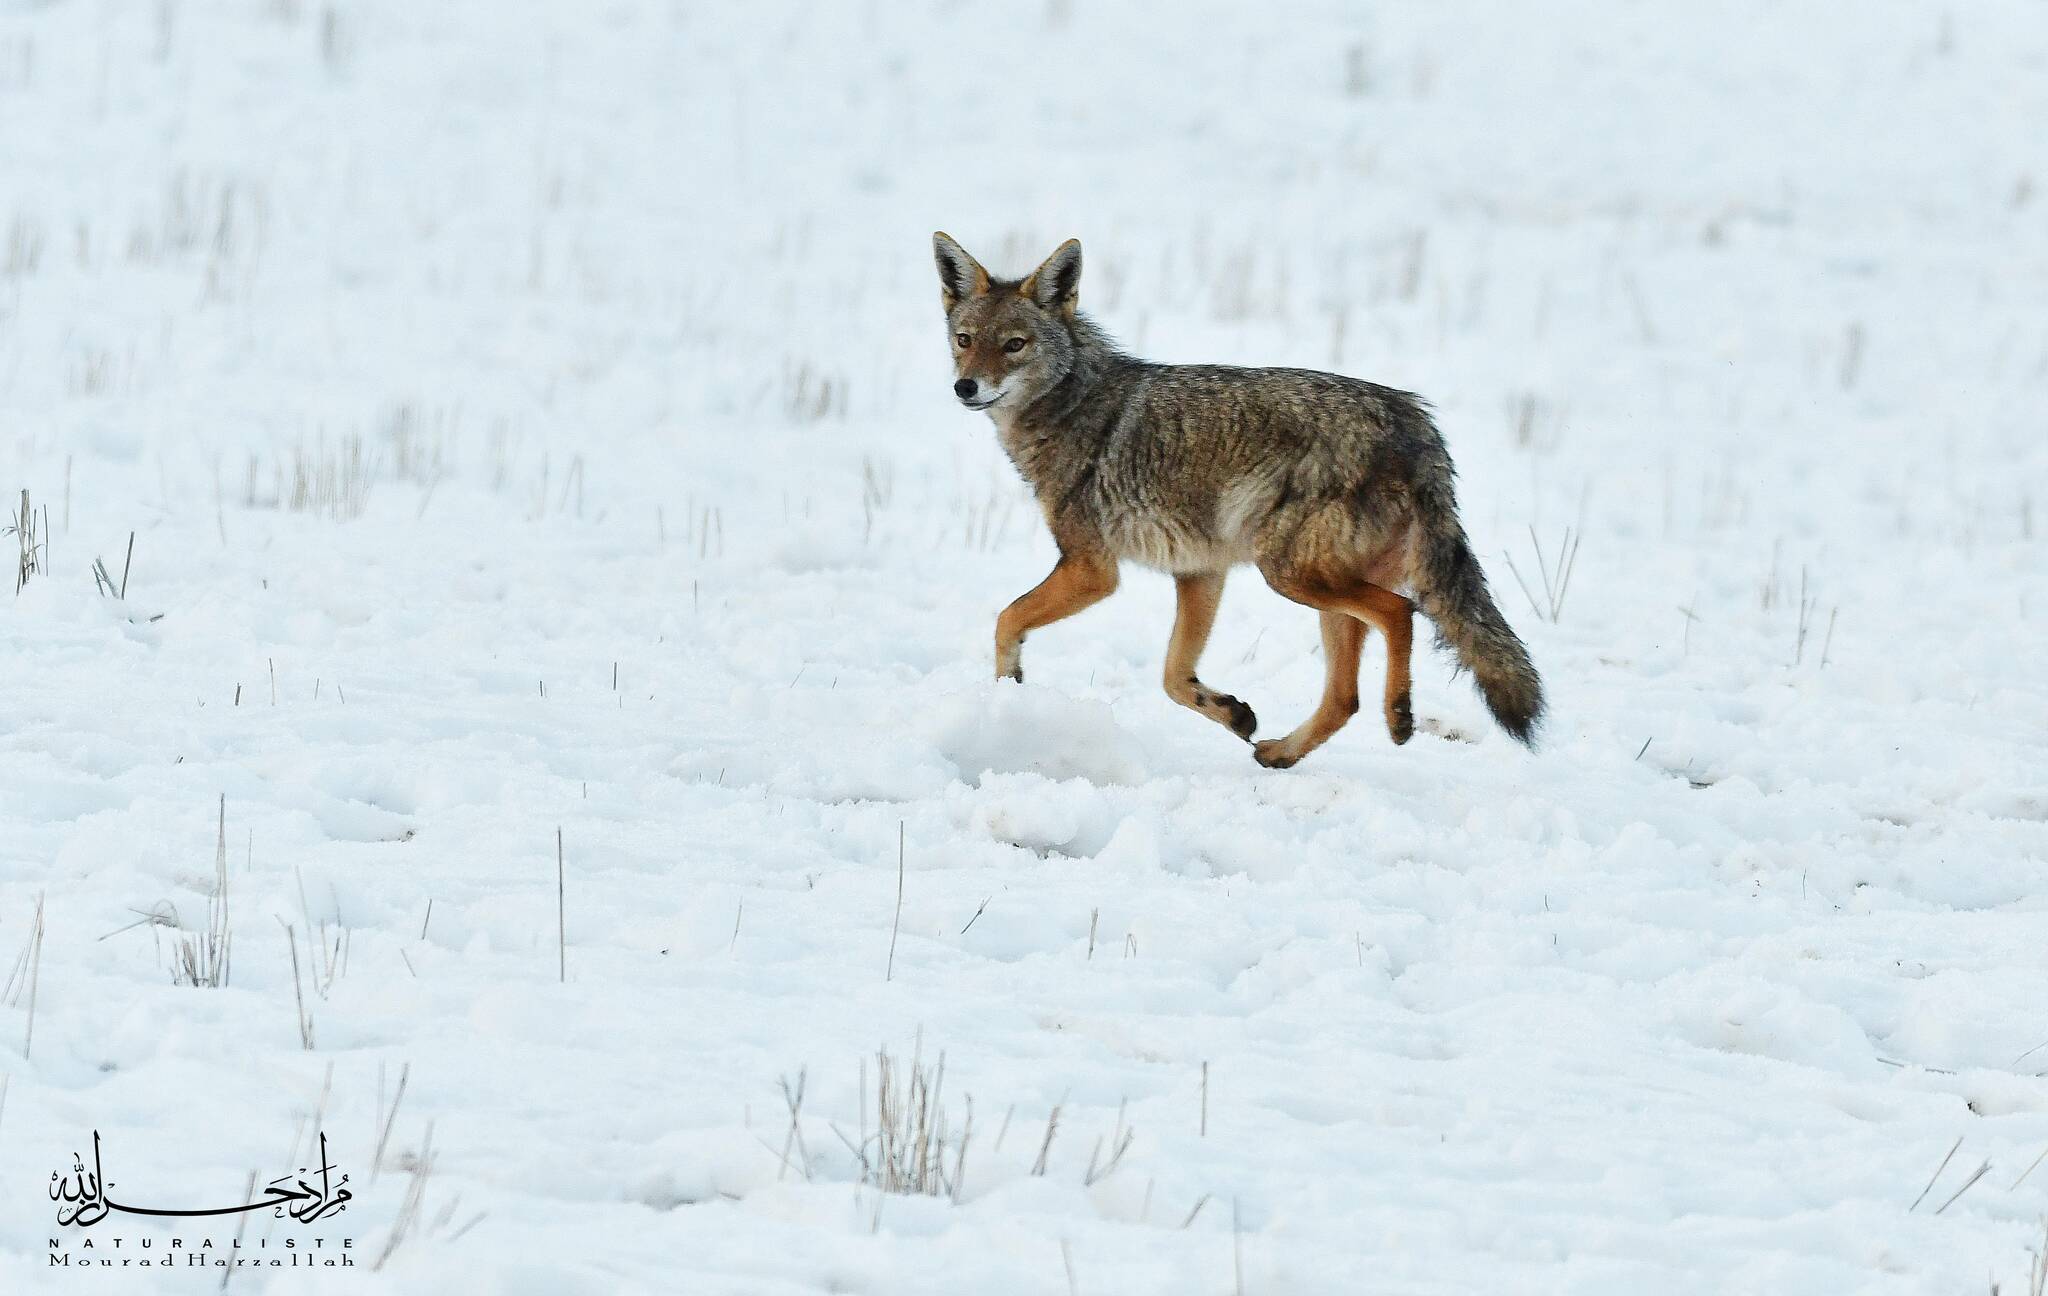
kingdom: Animalia
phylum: Chordata
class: Mammalia
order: Carnivora
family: Canidae
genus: Canis
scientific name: Canis lupaster
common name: African golden wolf
